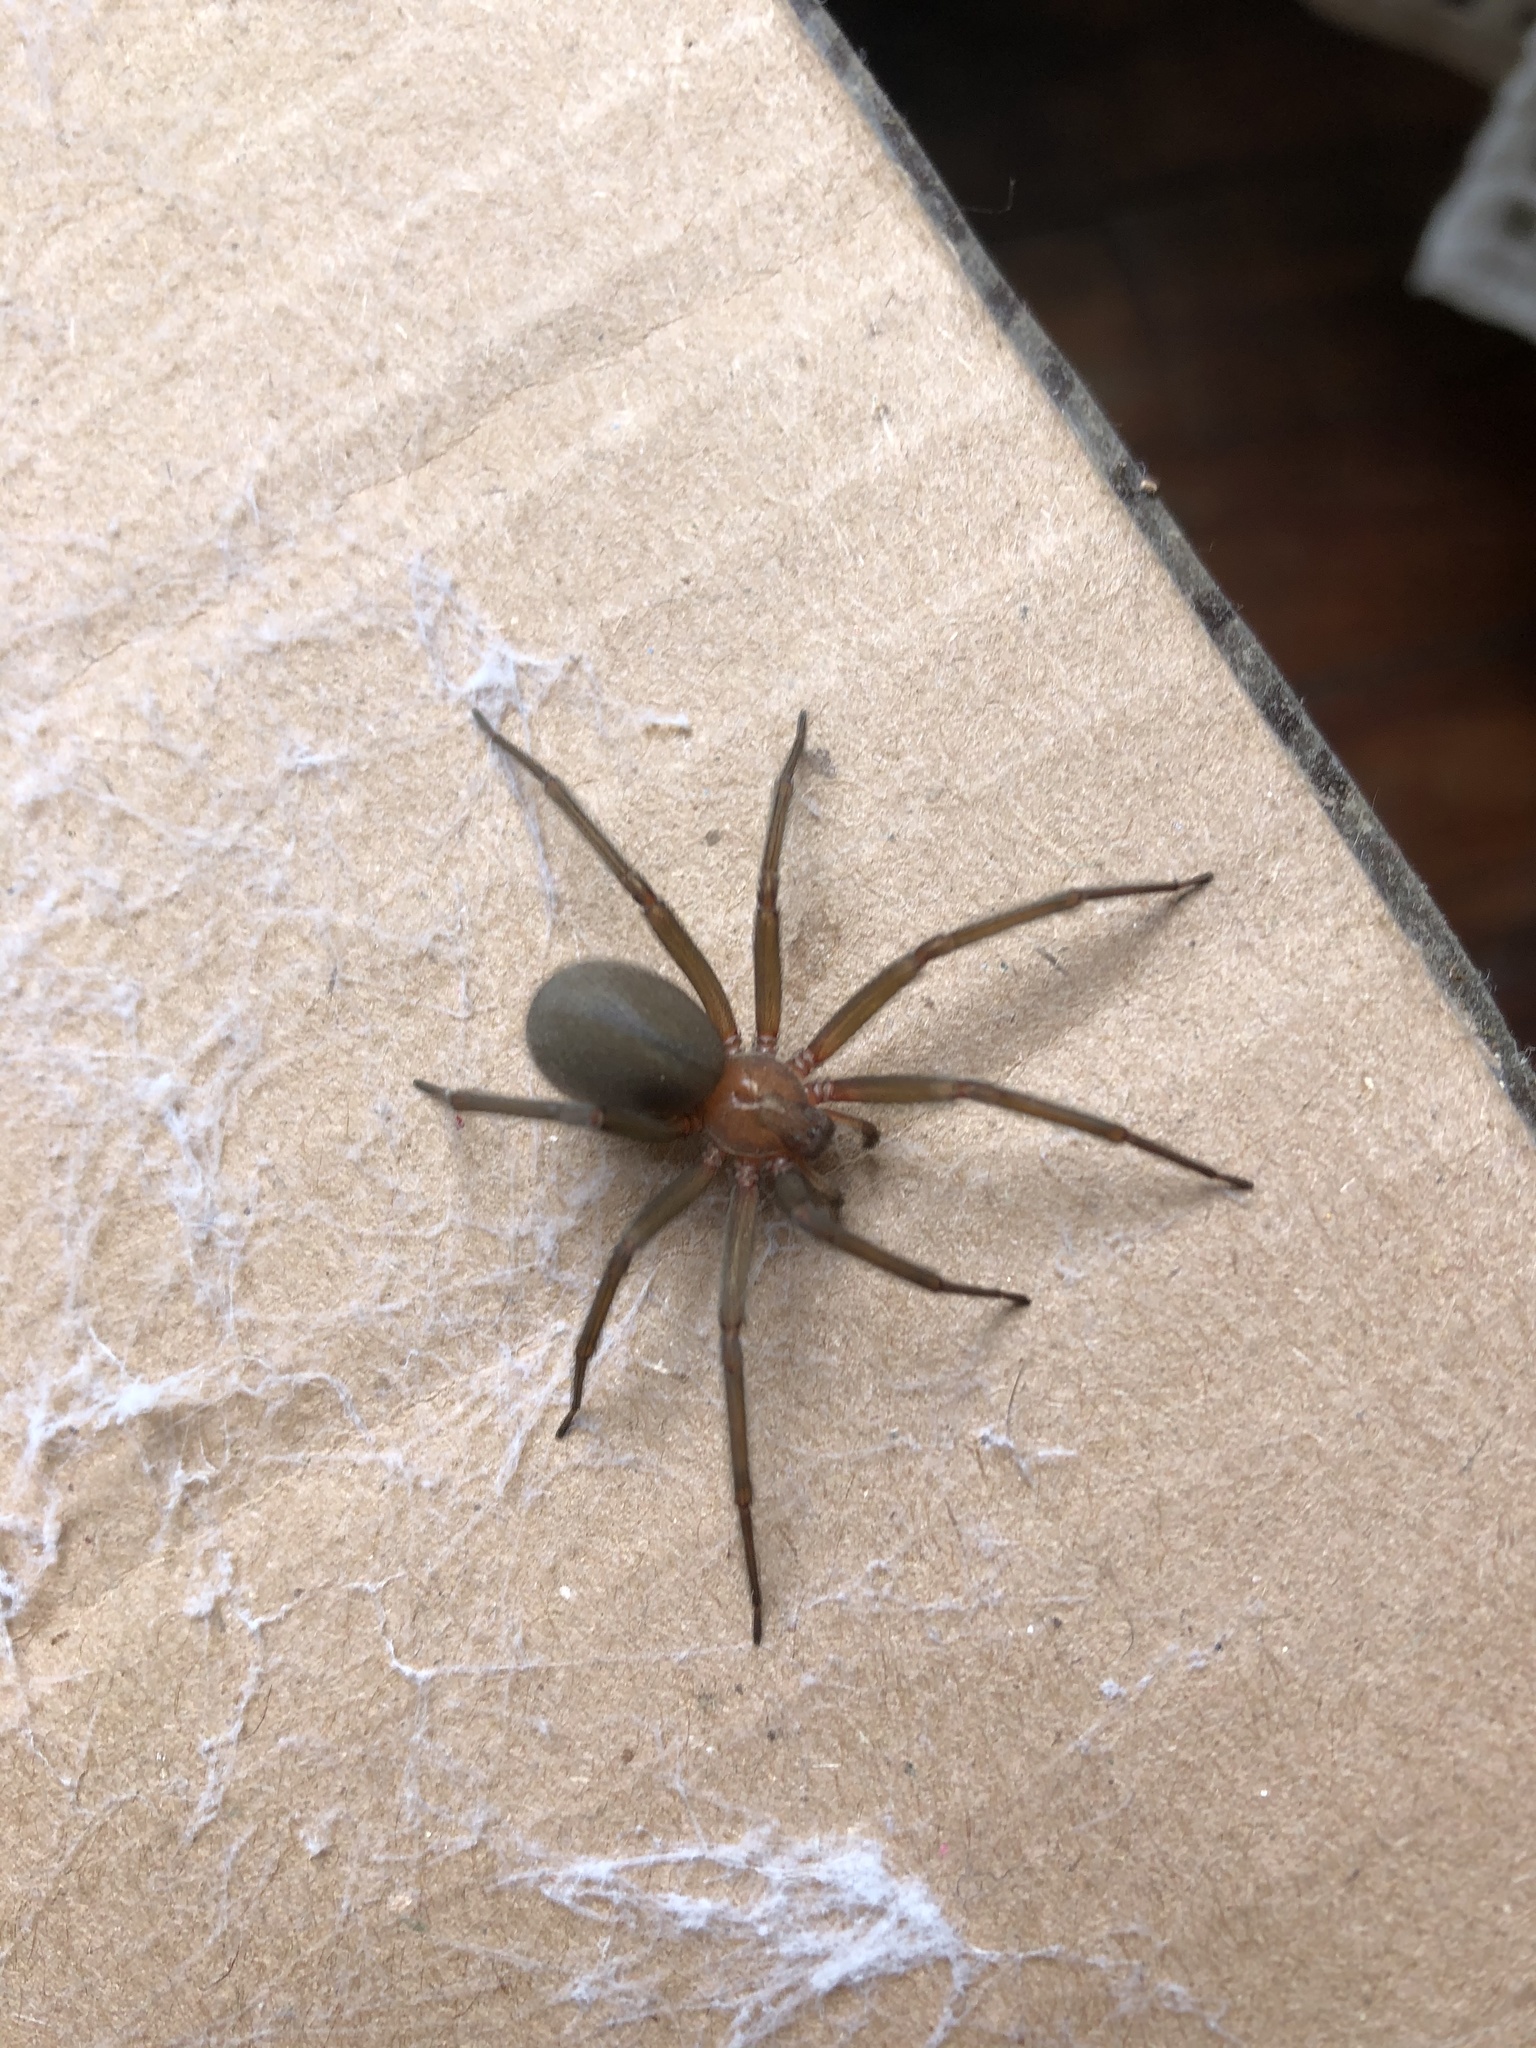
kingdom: Animalia
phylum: Arthropoda
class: Arachnida
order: Araneae
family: Sicariidae
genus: Loxosceles
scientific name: Loxosceles laeta
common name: Chilean recluse spider
